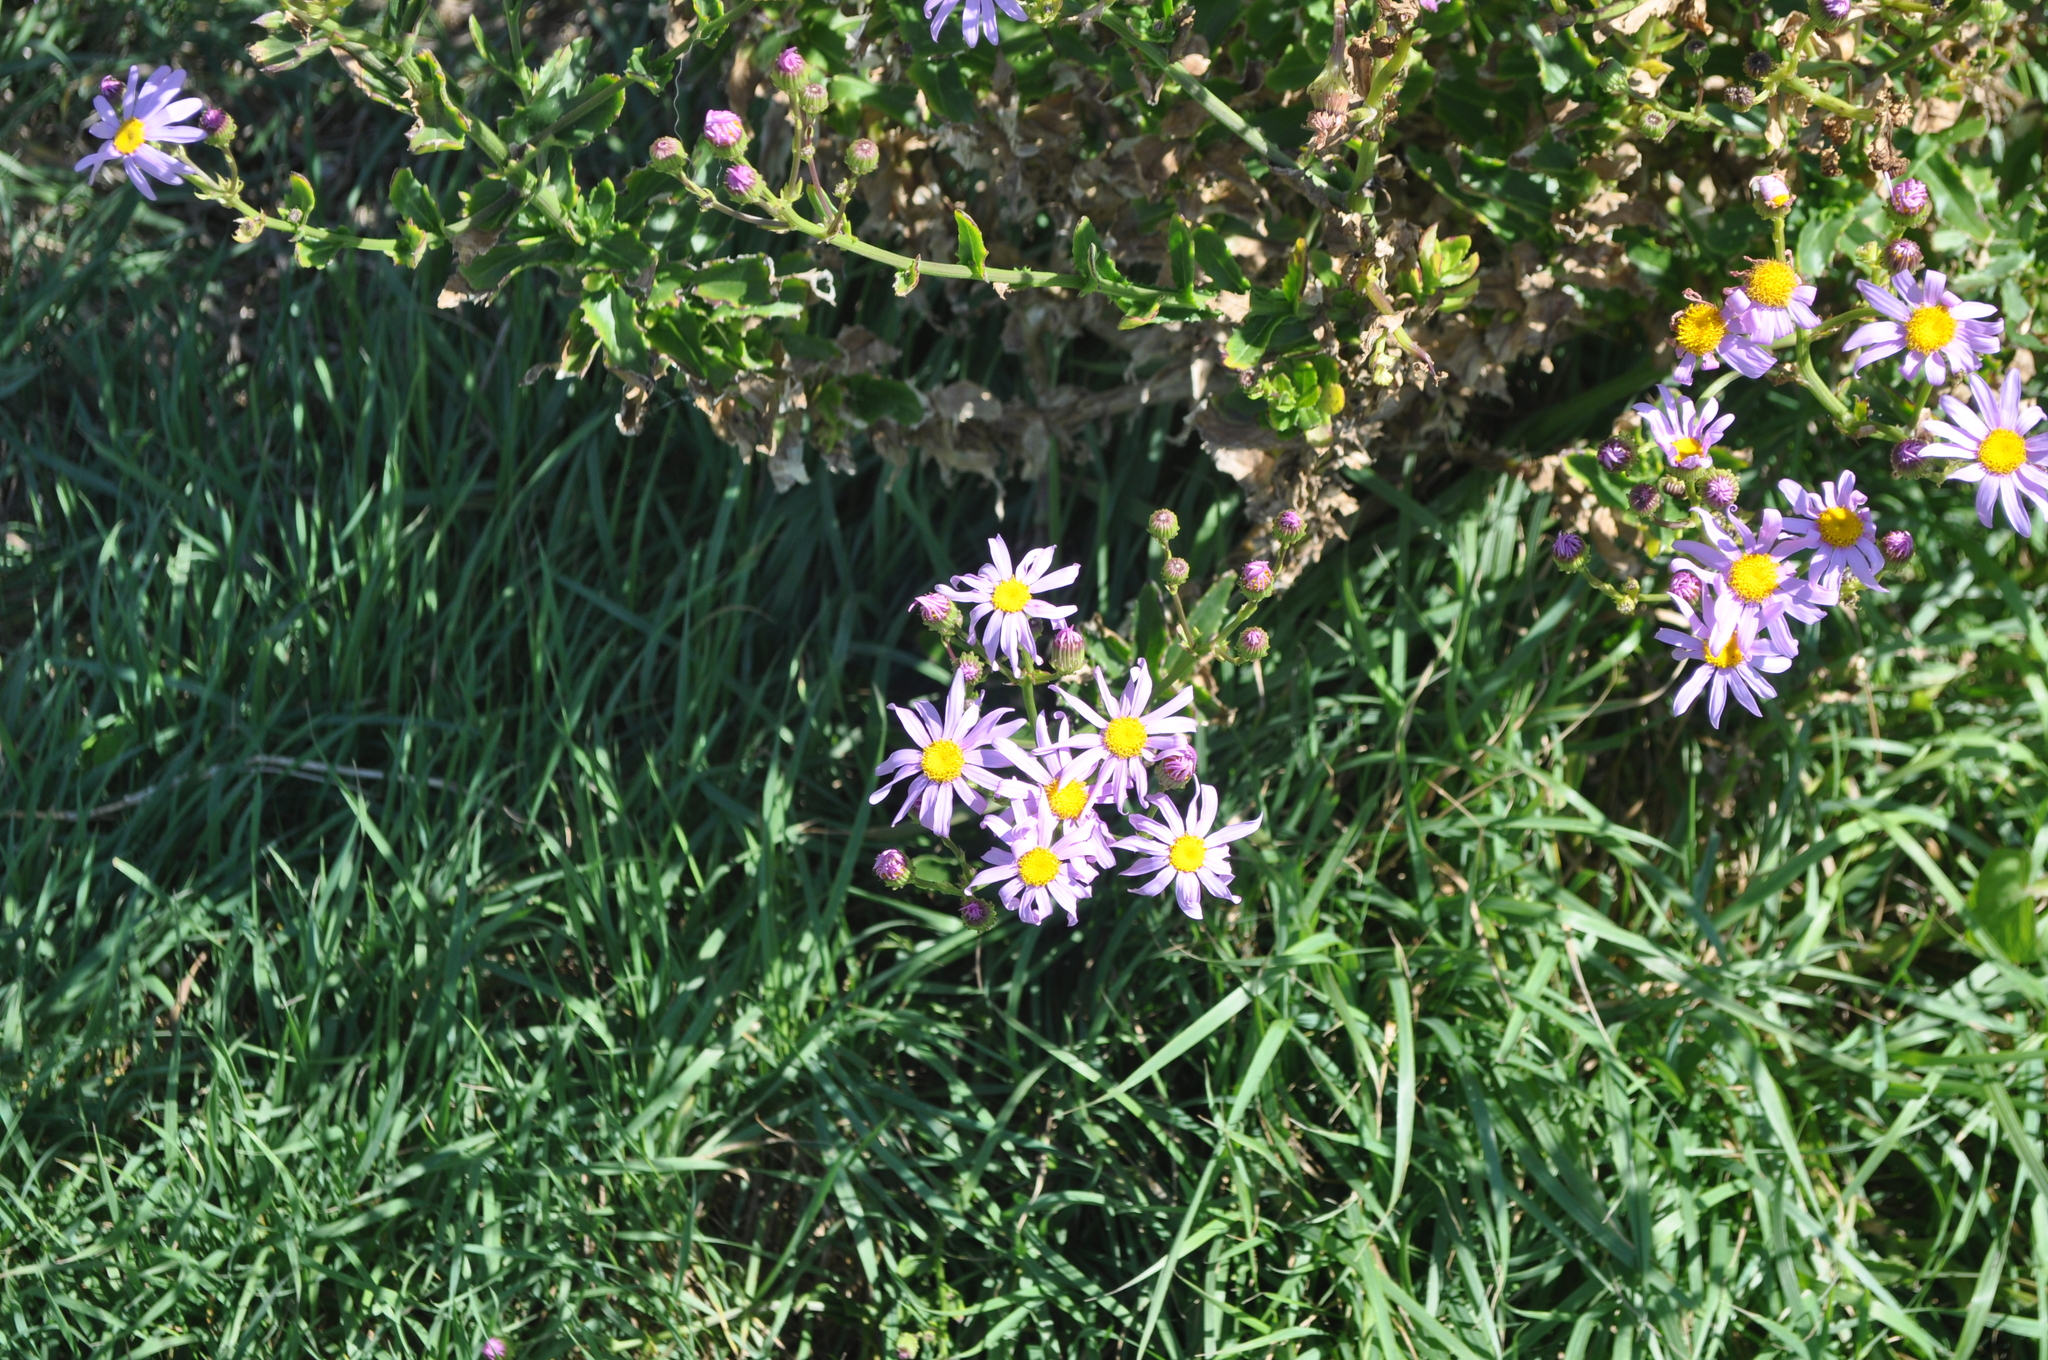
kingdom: Plantae
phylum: Tracheophyta
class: Magnoliopsida
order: Asterales
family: Asteraceae
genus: Senecio
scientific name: Senecio glastifolius
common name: Woad-leaved ragwort
